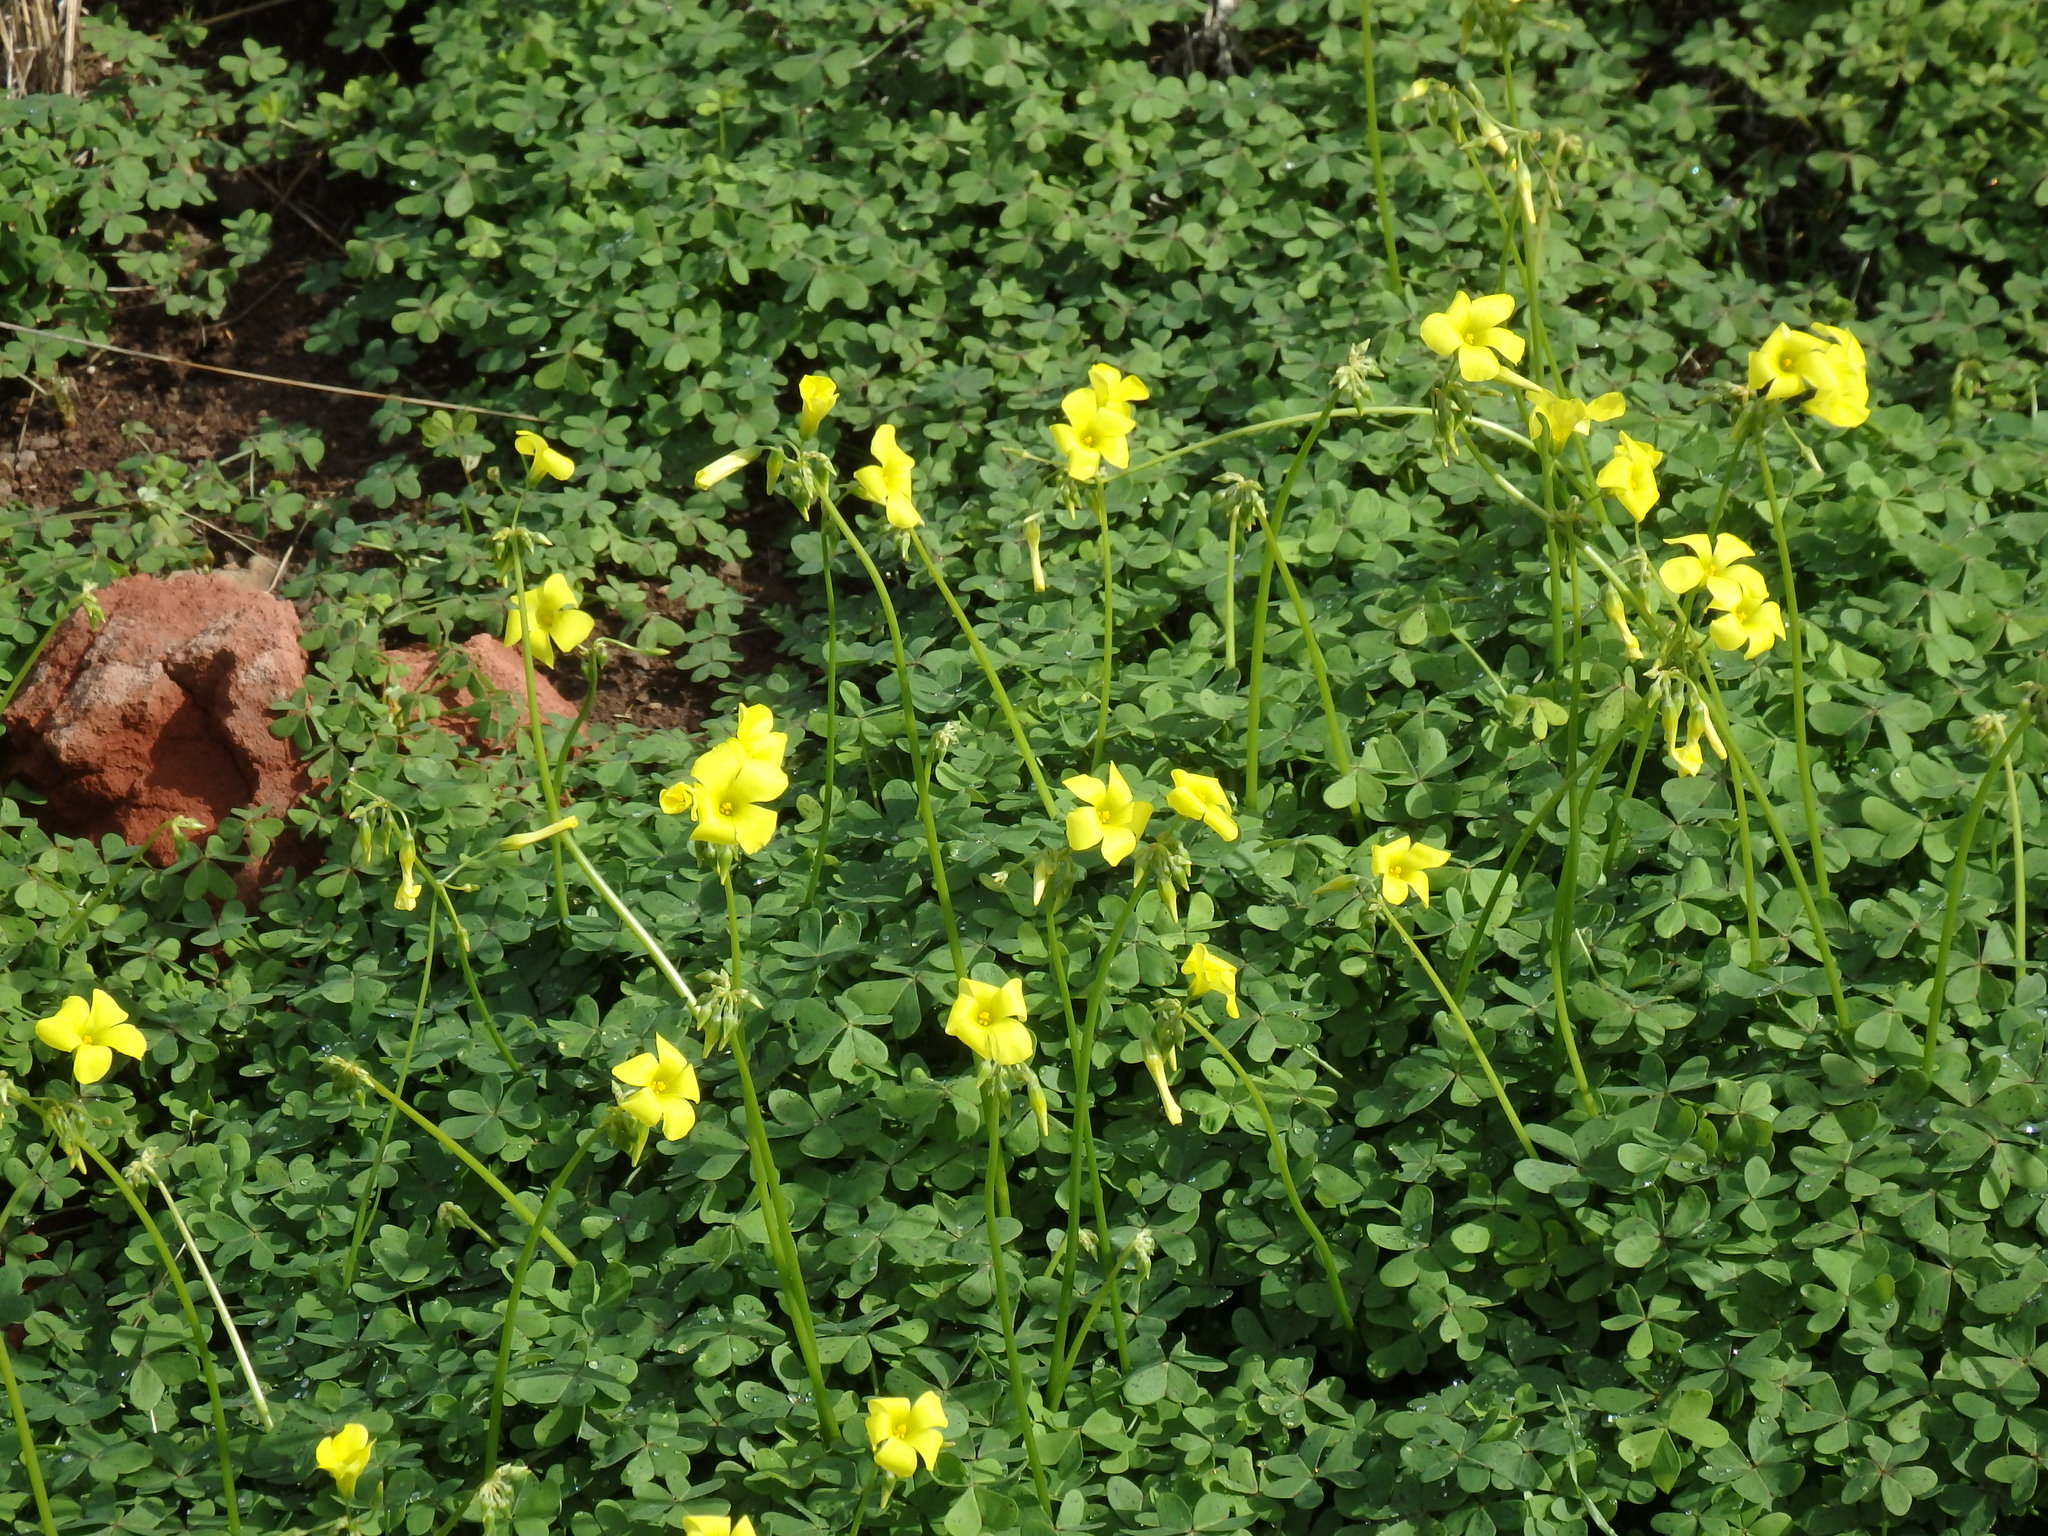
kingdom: Plantae
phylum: Tracheophyta
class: Magnoliopsida
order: Oxalidales
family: Oxalidaceae
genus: Oxalis
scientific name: Oxalis pes-caprae
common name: Bermuda-buttercup
